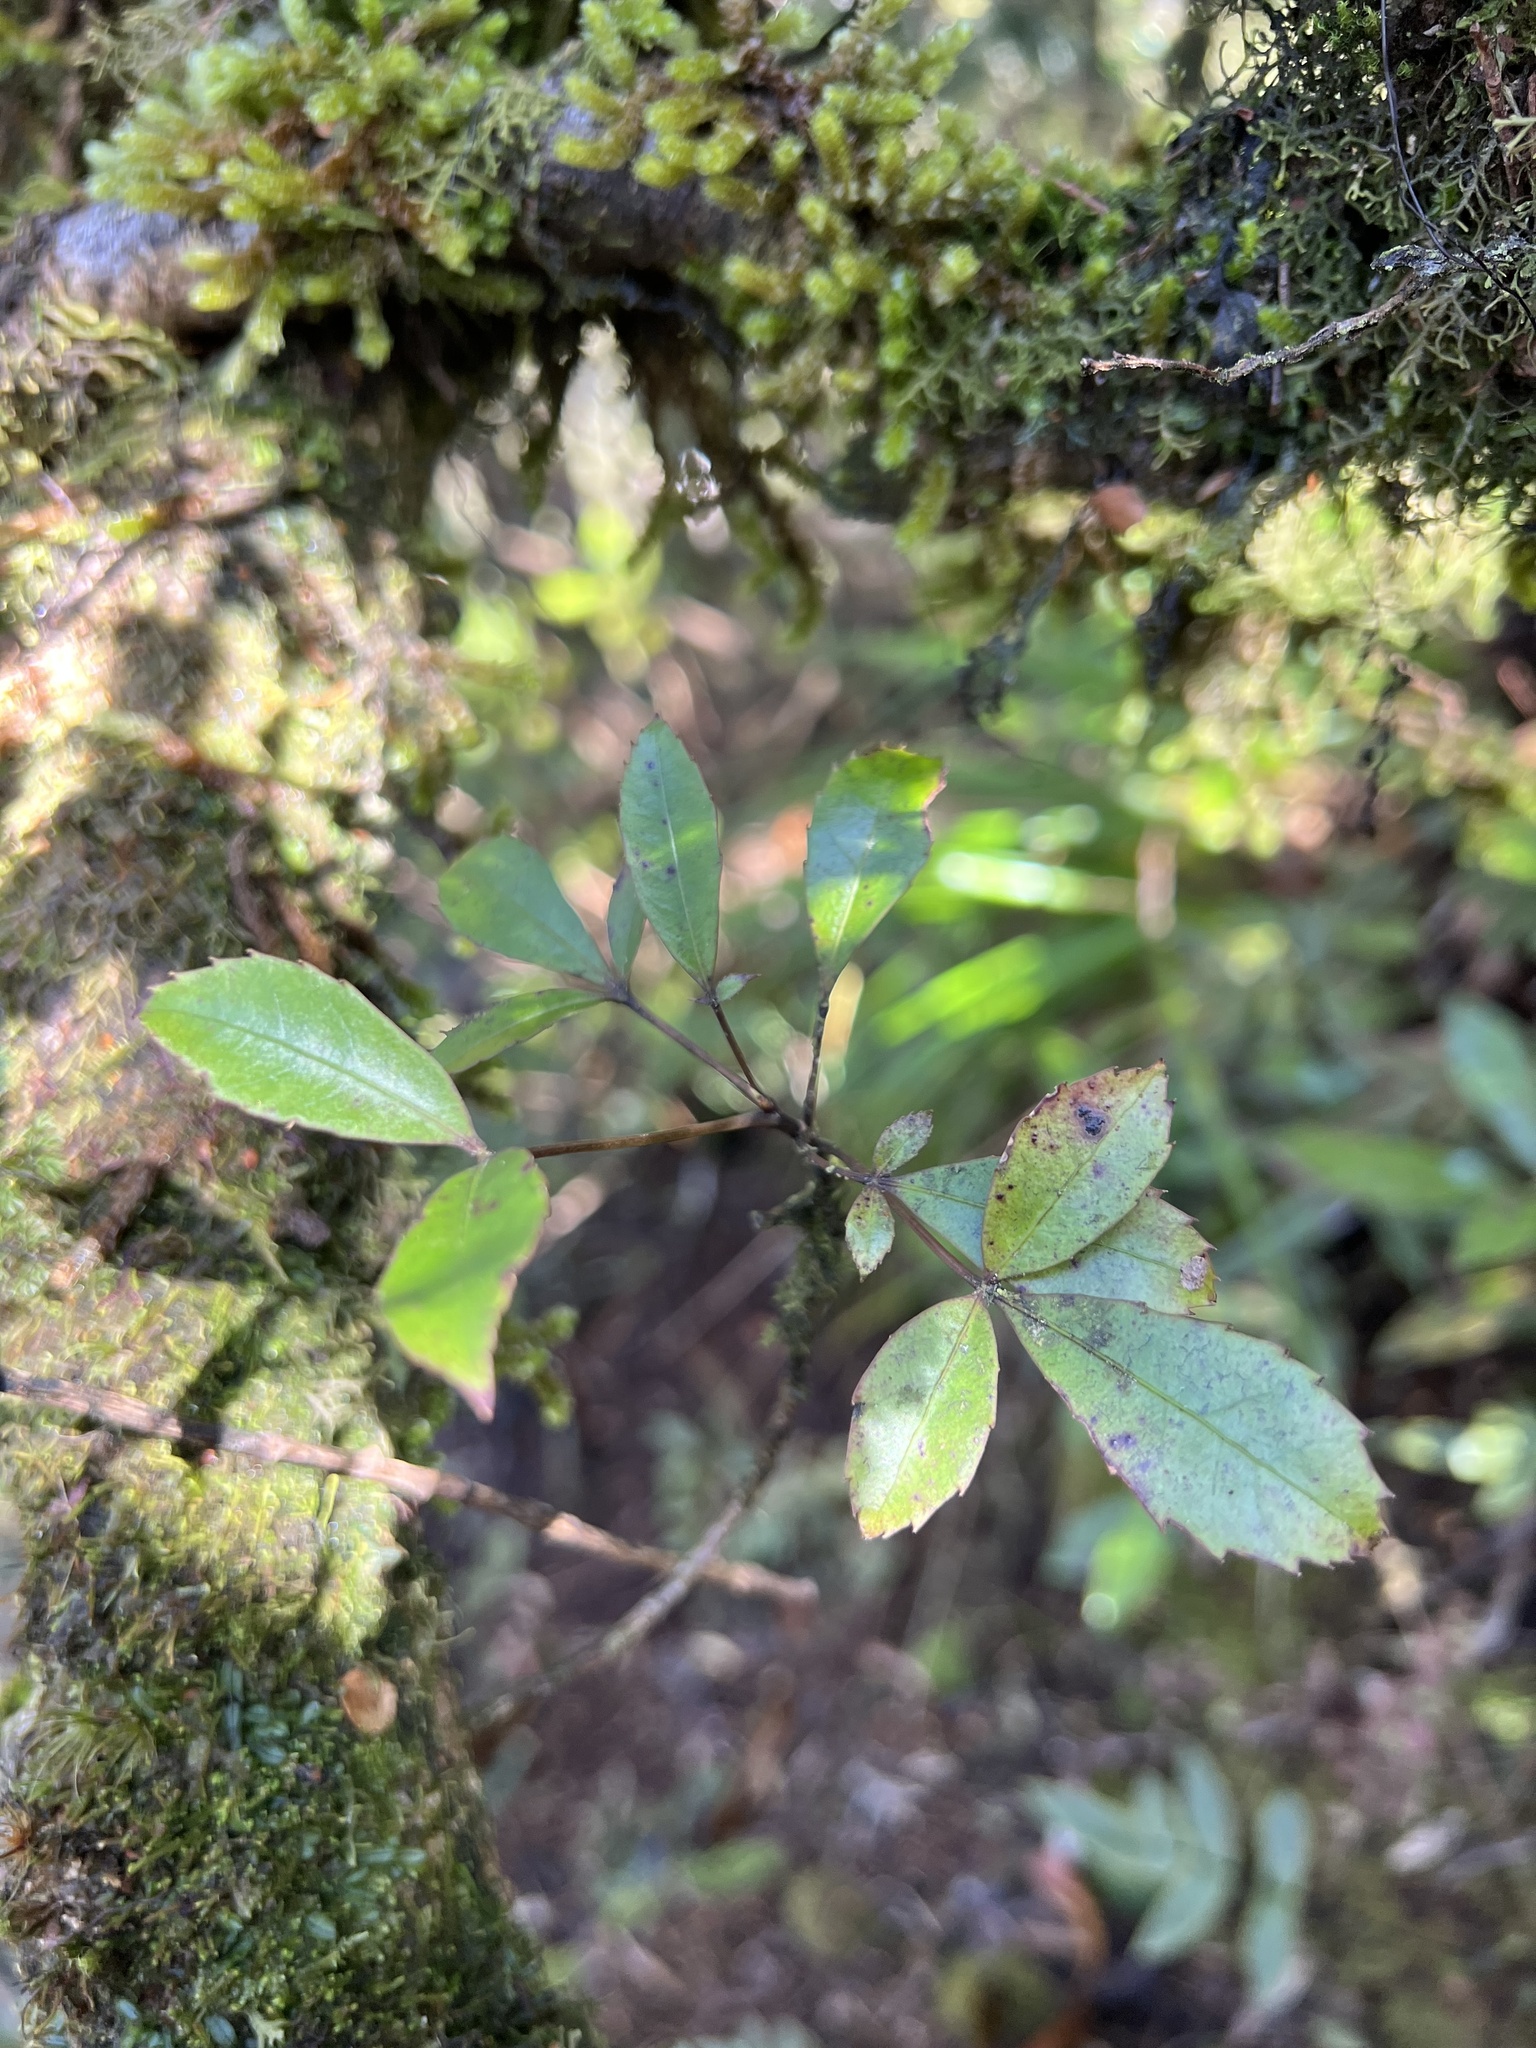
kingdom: Plantae
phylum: Tracheophyta
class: Magnoliopsida
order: Apiales
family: Araliaceae
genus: Raukaua
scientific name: Raukaua simplex
